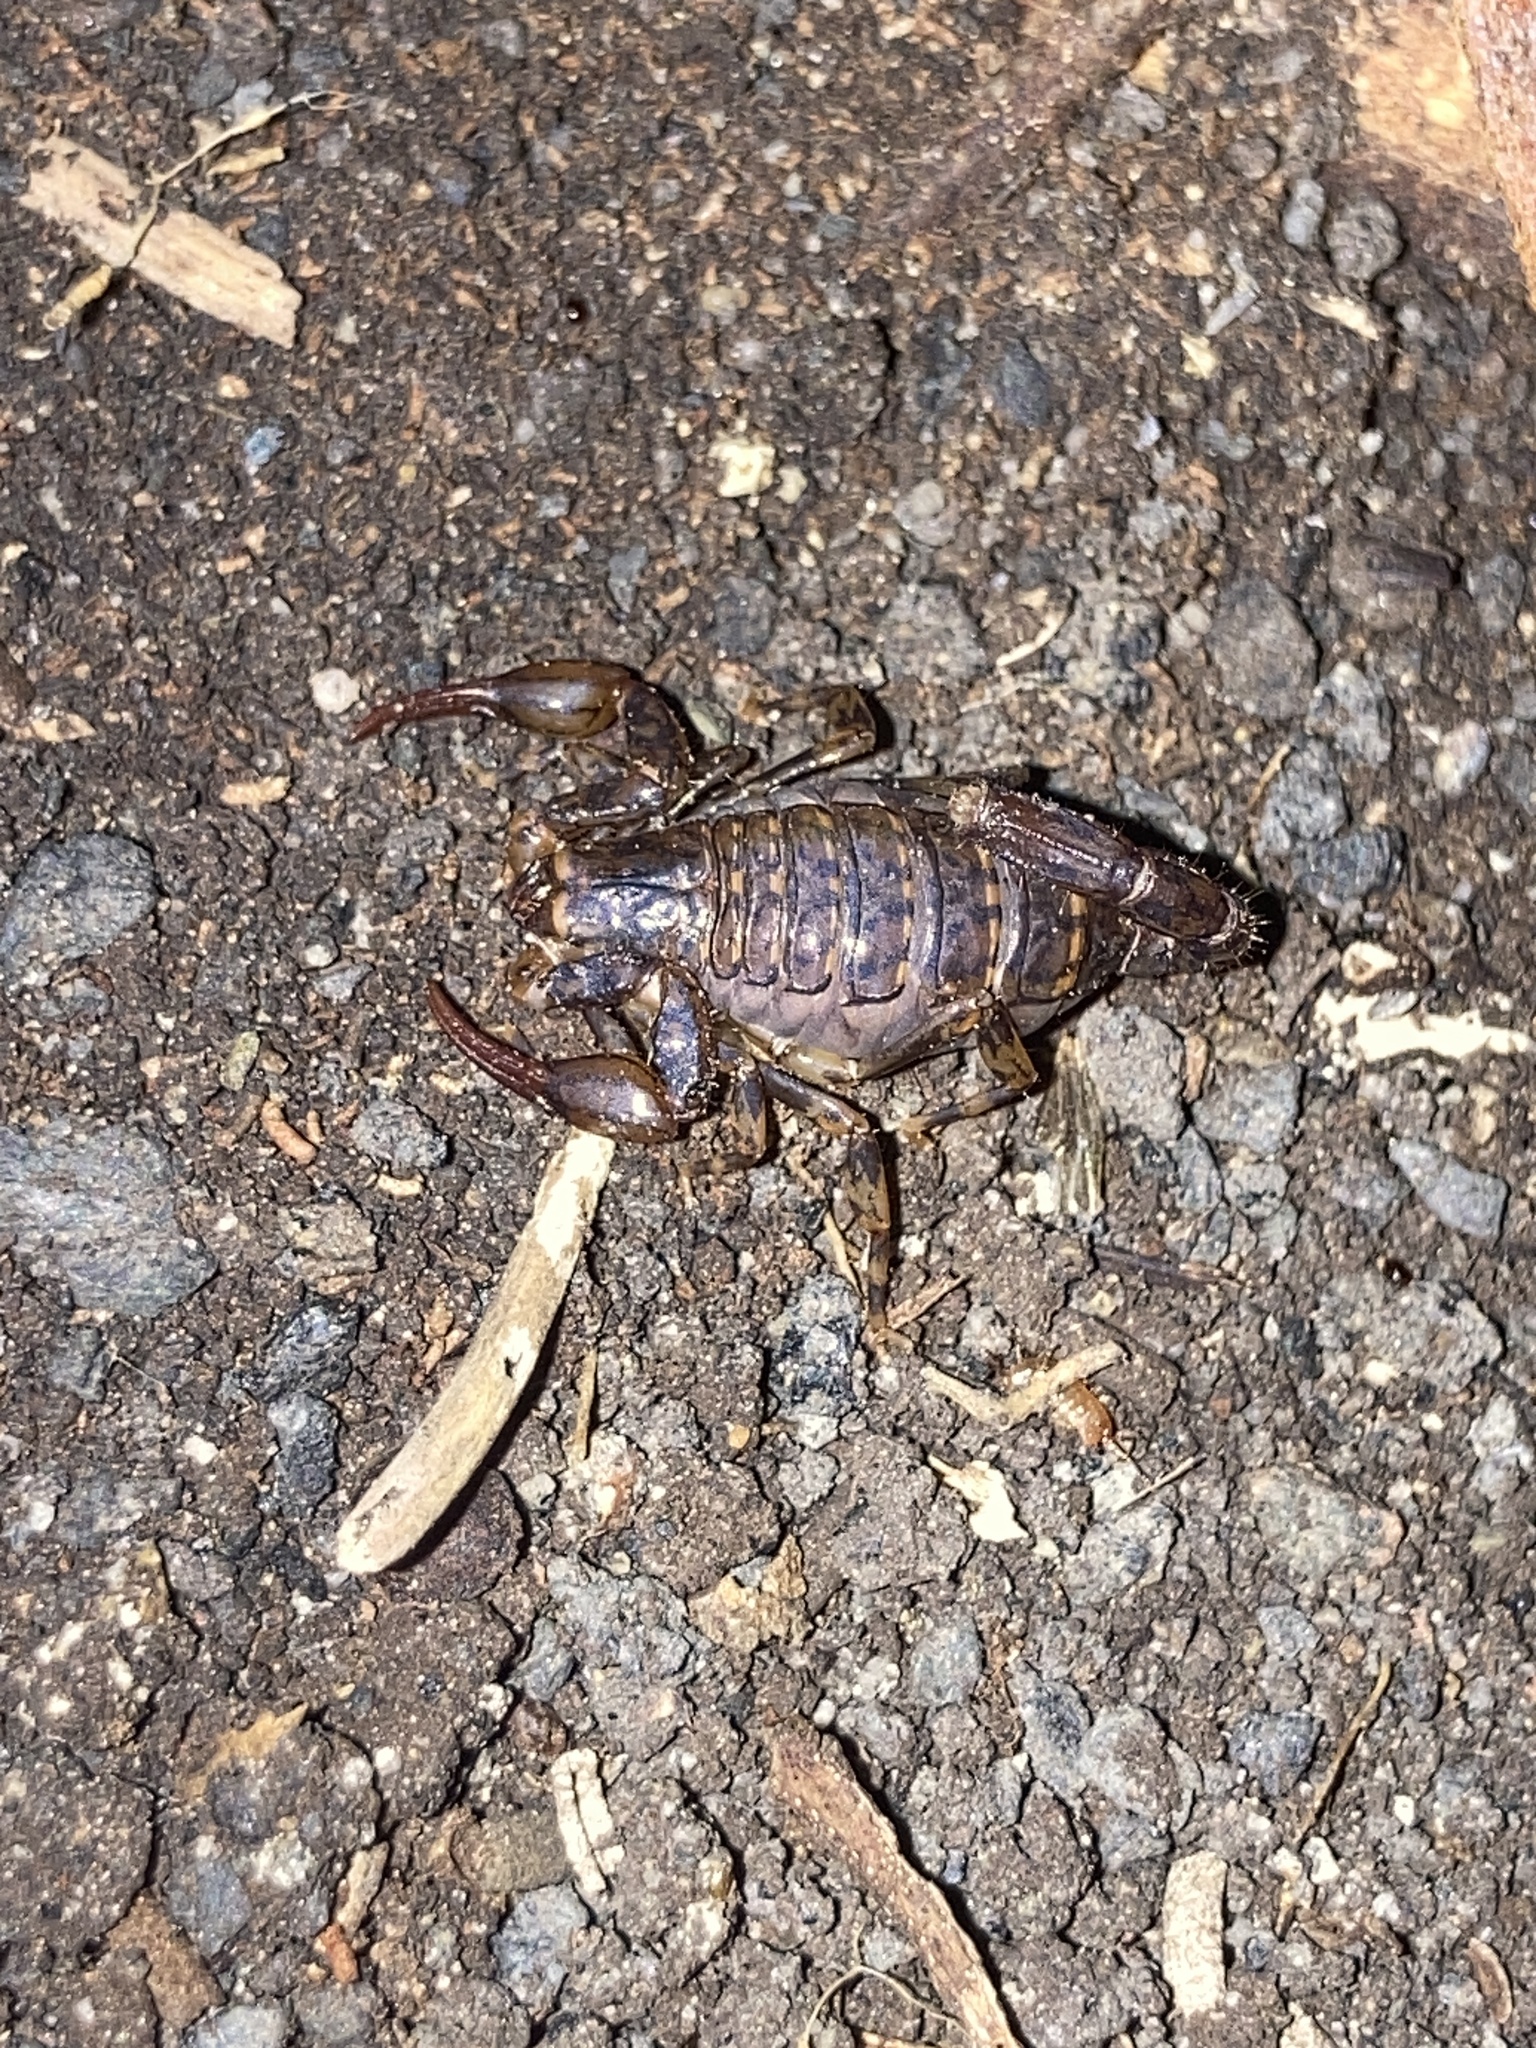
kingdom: Animalia
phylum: Arthropoda
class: Arachnida
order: Scorpiones
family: Bothriuridae
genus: Cercophonius
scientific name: Cercophonius squama
